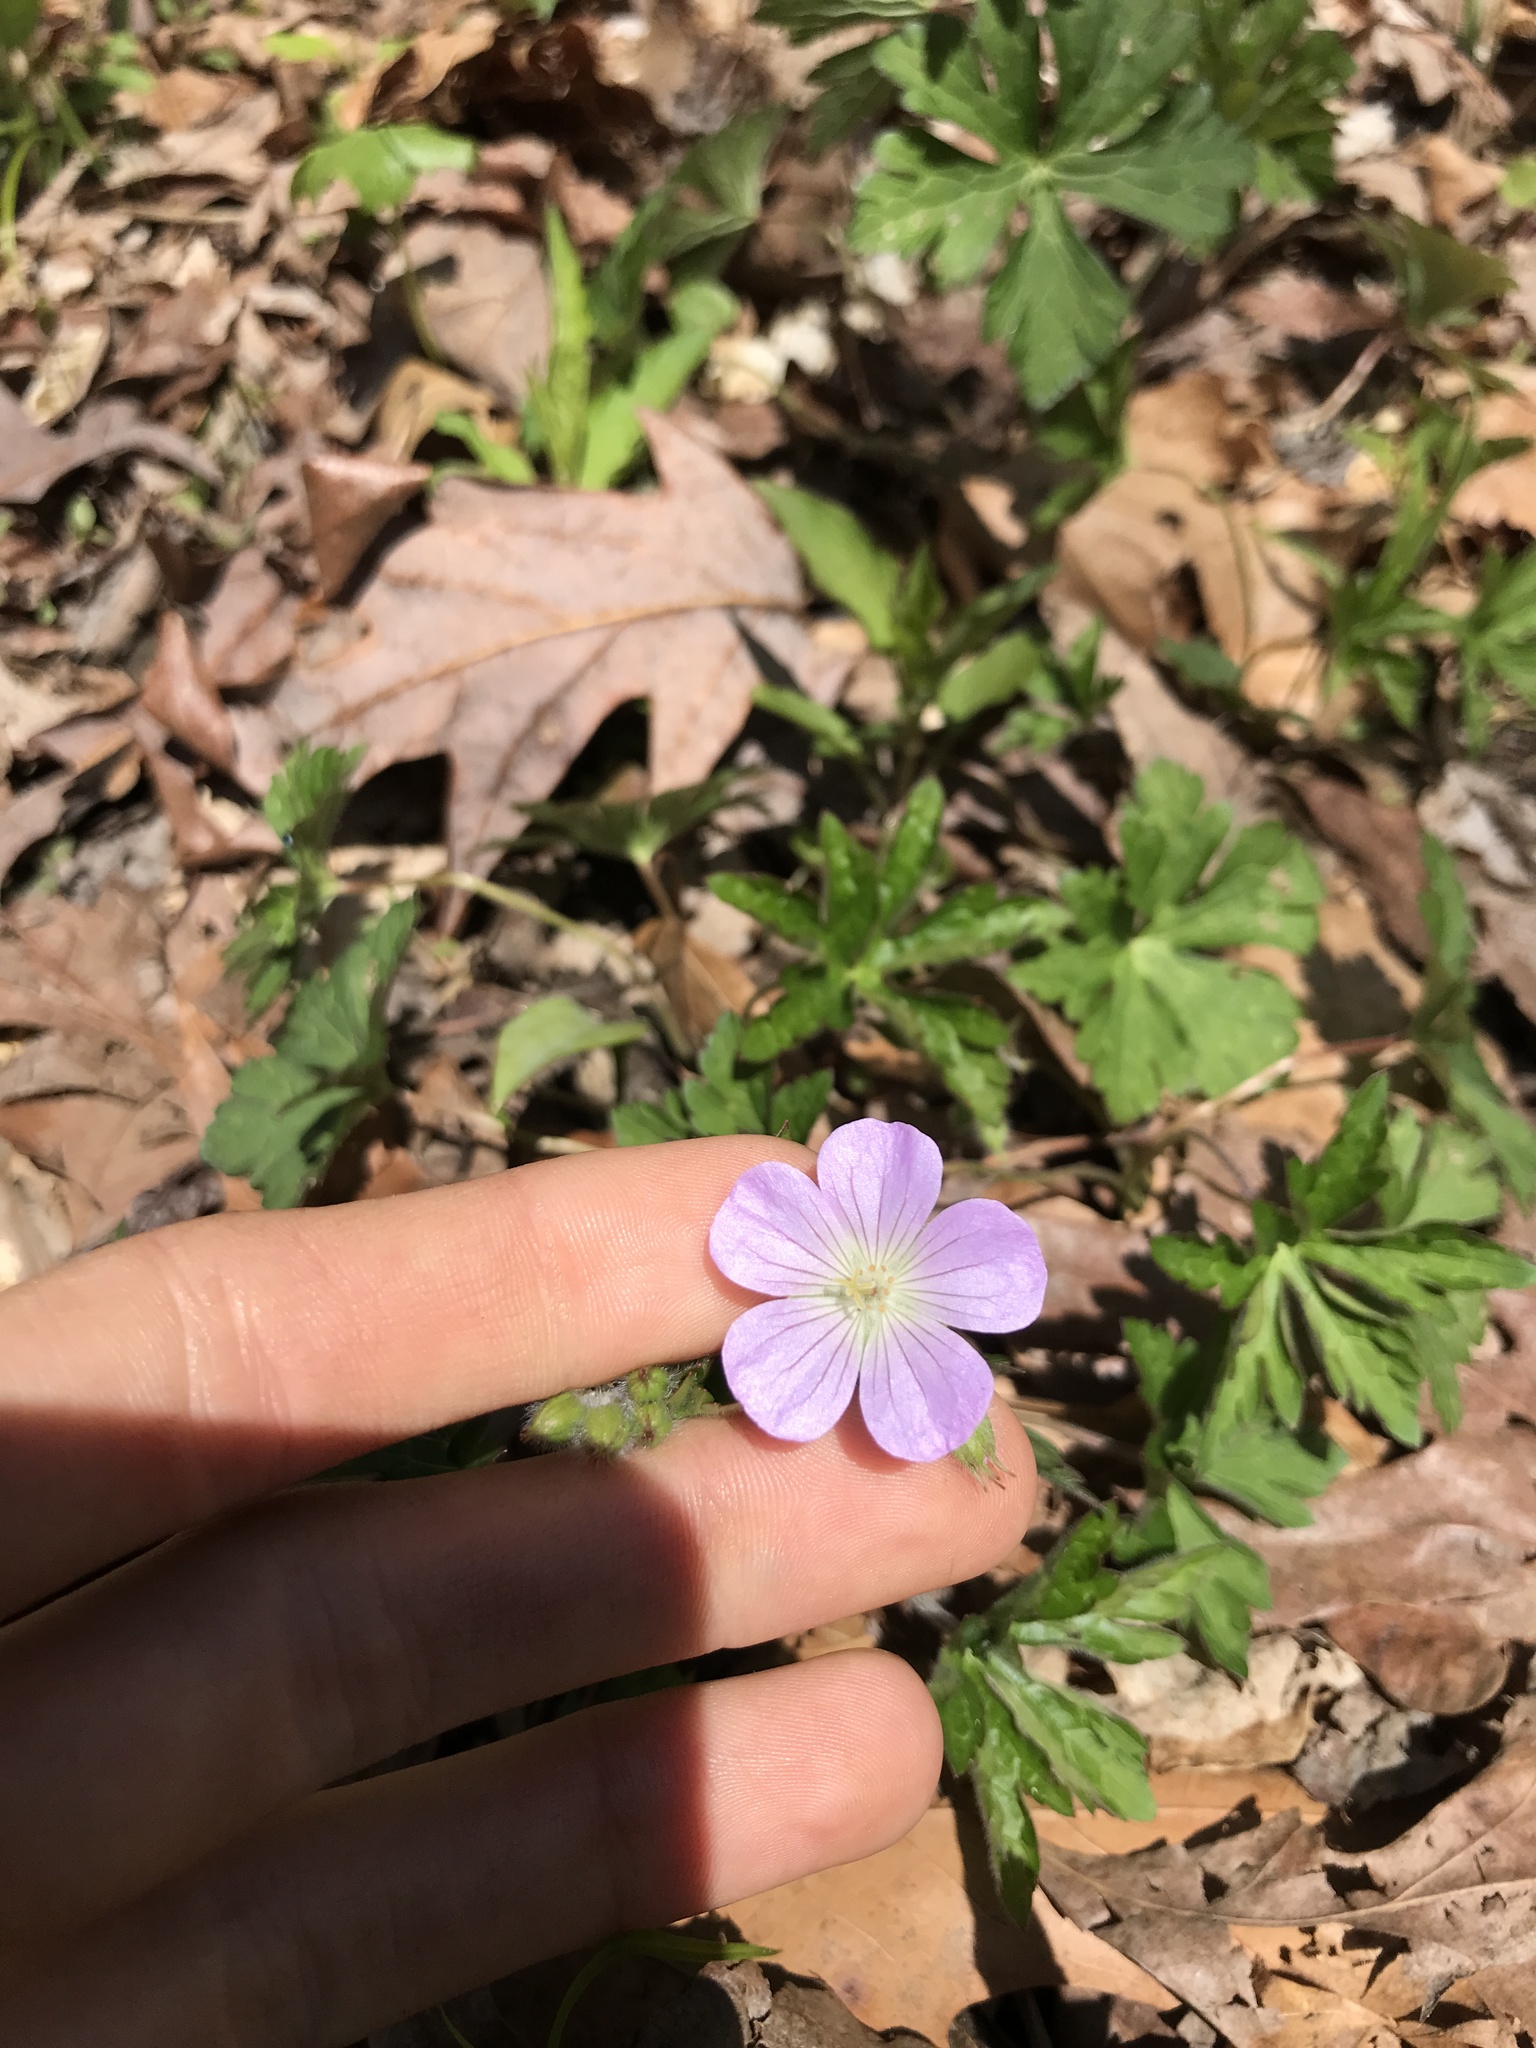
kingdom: Plantae
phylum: Tracheophyta
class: Magnoliopsida
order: Geraniales
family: Geraniaceae
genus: Geranium
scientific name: Geranium maculatum
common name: Spotted geranium
